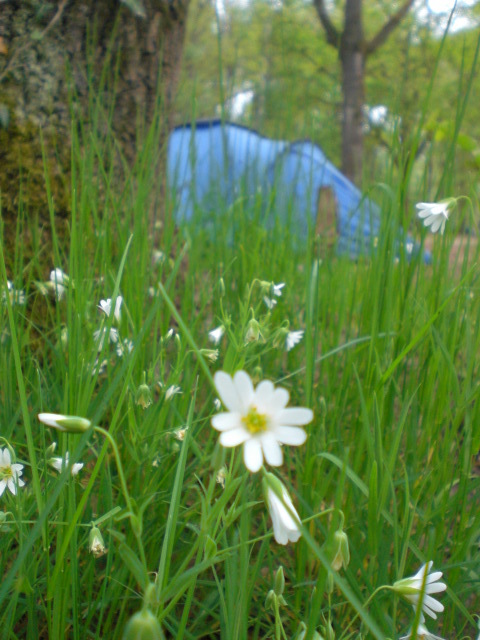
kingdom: Plantae
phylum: Tracheophyta
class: Magnoliopsida
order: Caryophyllales
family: Caryophyllaceae
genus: Rabelera
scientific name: Rabelera holostea
